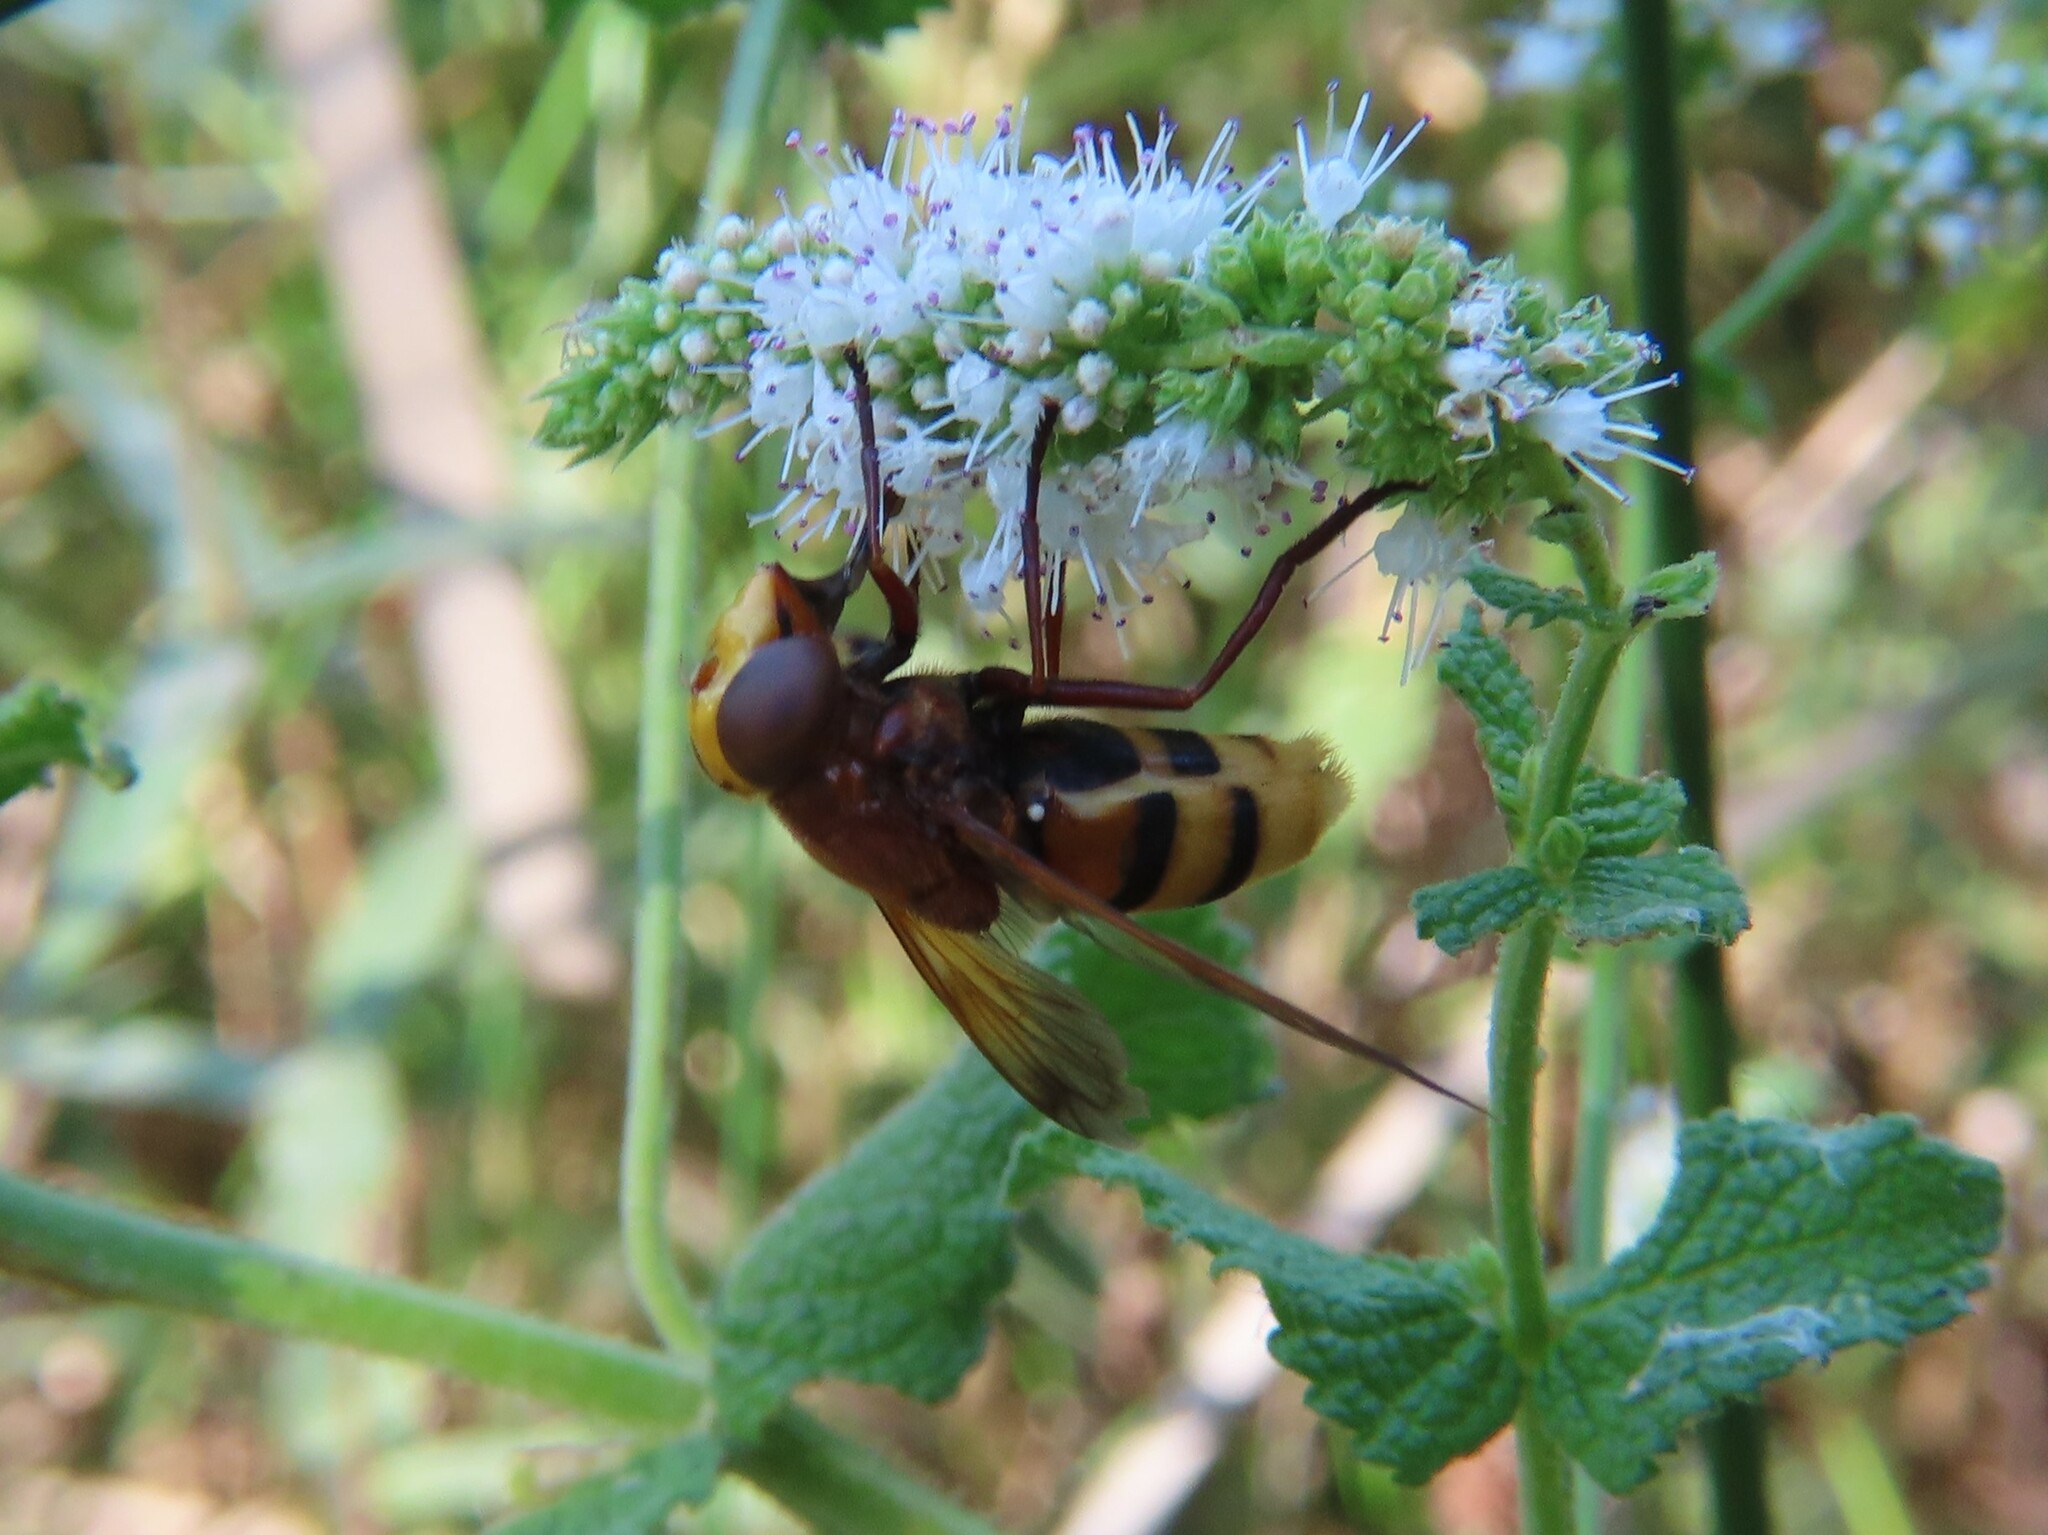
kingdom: Animalia
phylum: Arthropoda
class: Insecta
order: Diptera
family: Syrphidae
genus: Volucella
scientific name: Volucella zonaria
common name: Hornet hoverfly
